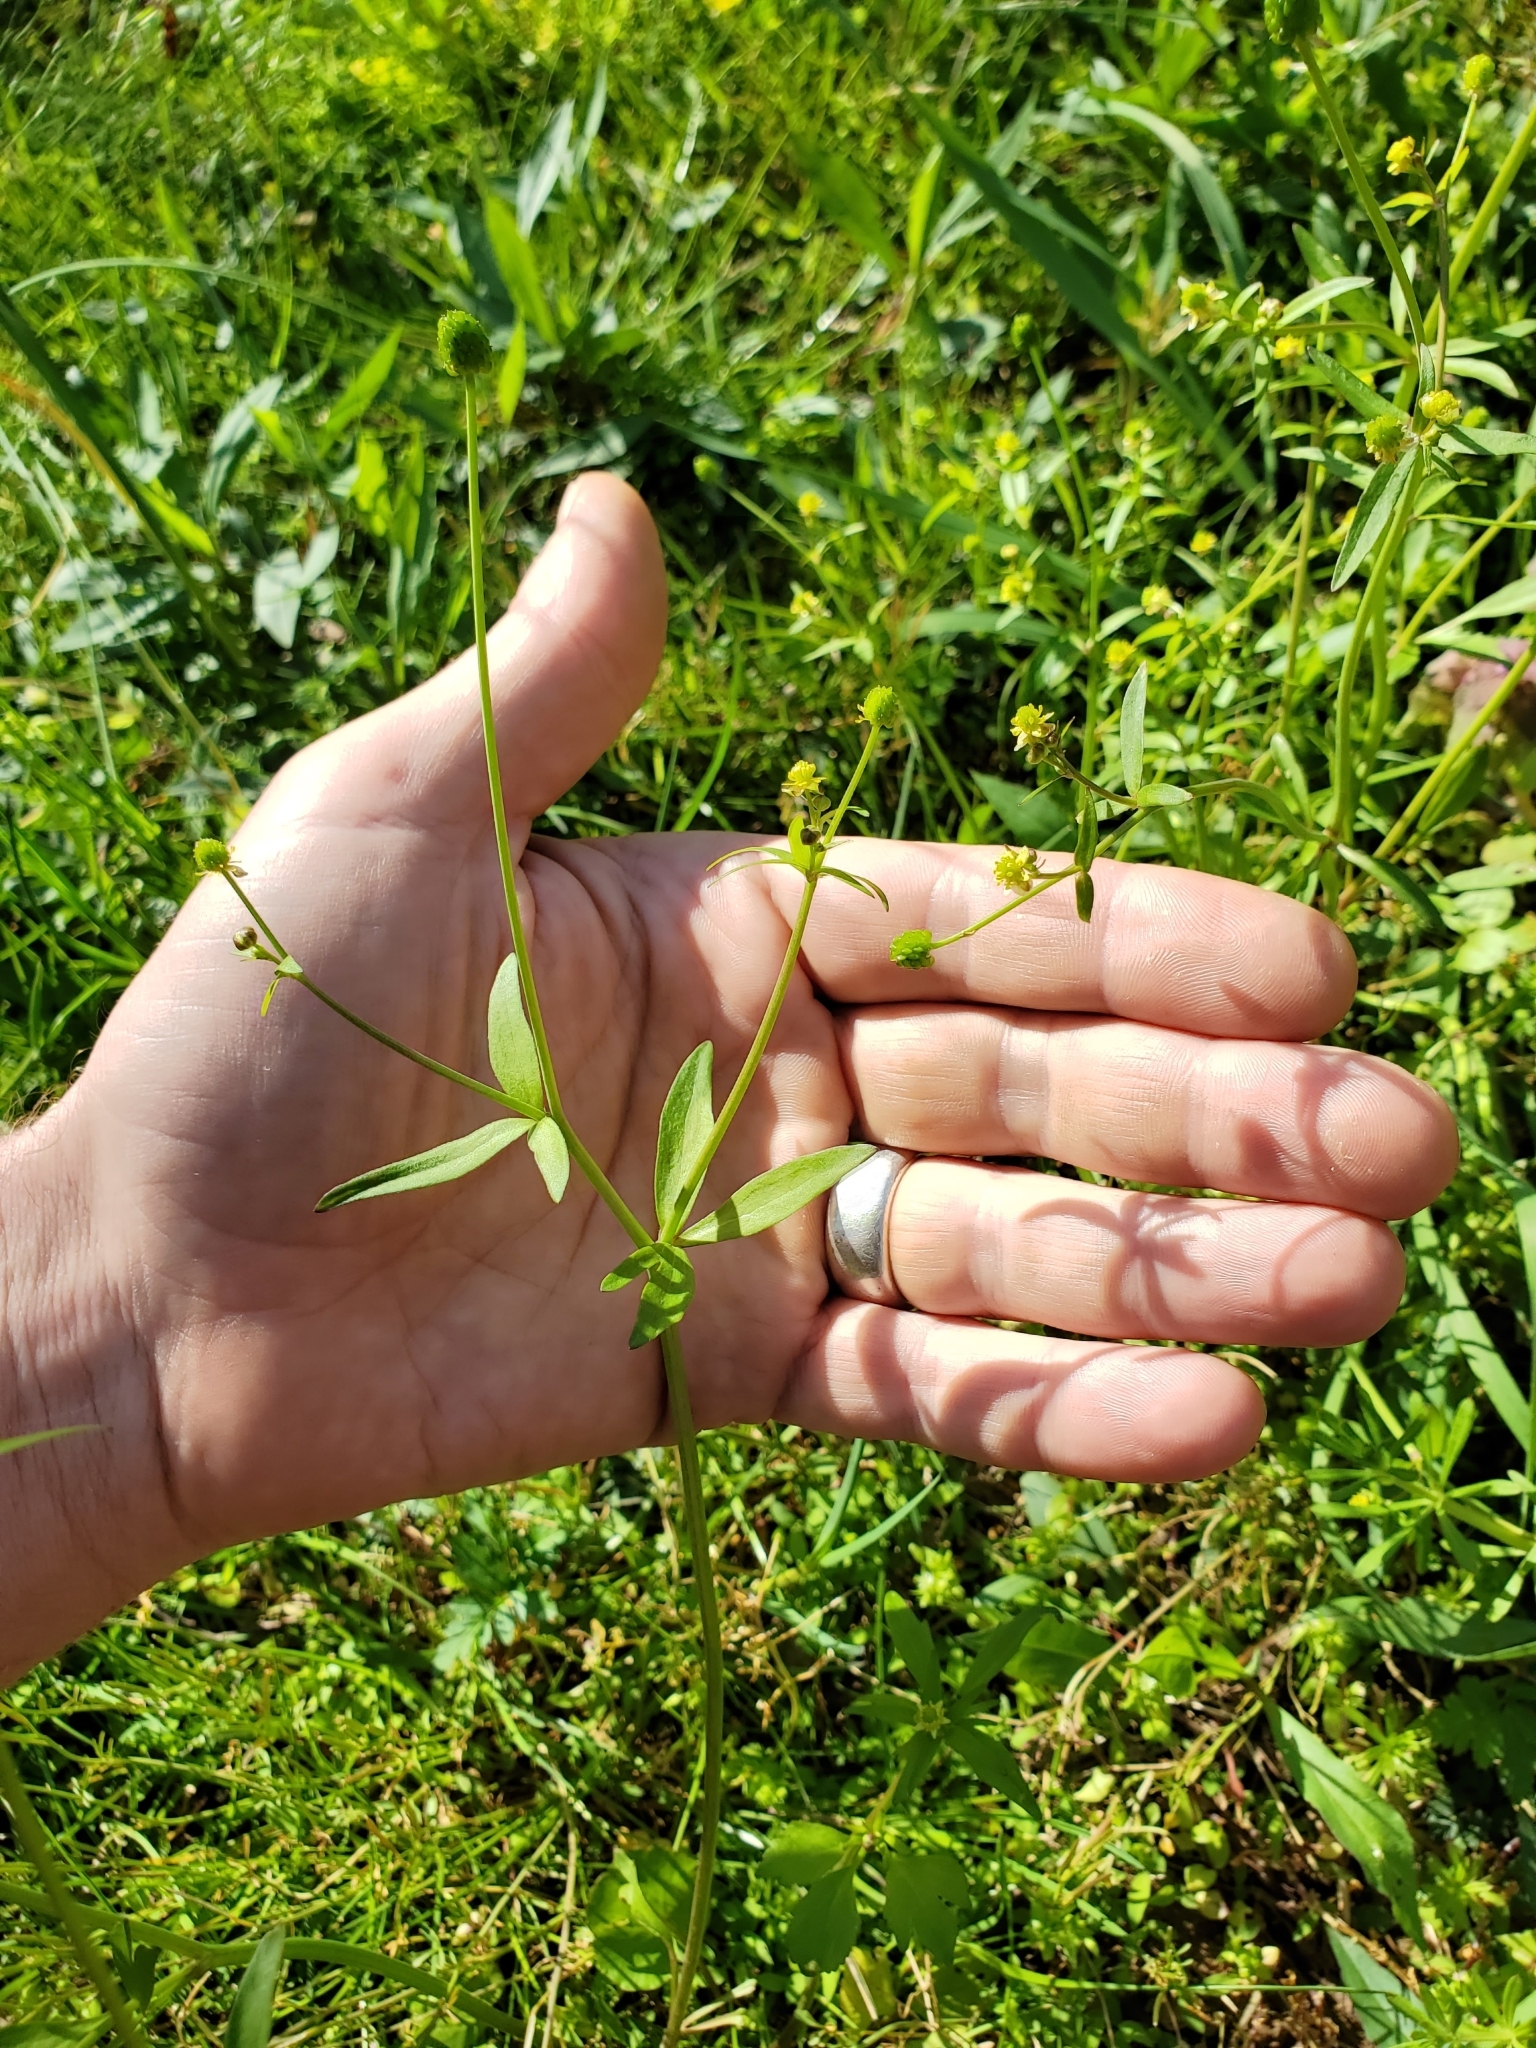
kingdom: Plantae
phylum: Tracheophyta
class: Magnoliopsida
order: Ranunculales
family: Ranunculaceae
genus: Ranunculus
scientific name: Ranunculus abortivus
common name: Early wood buttercup
